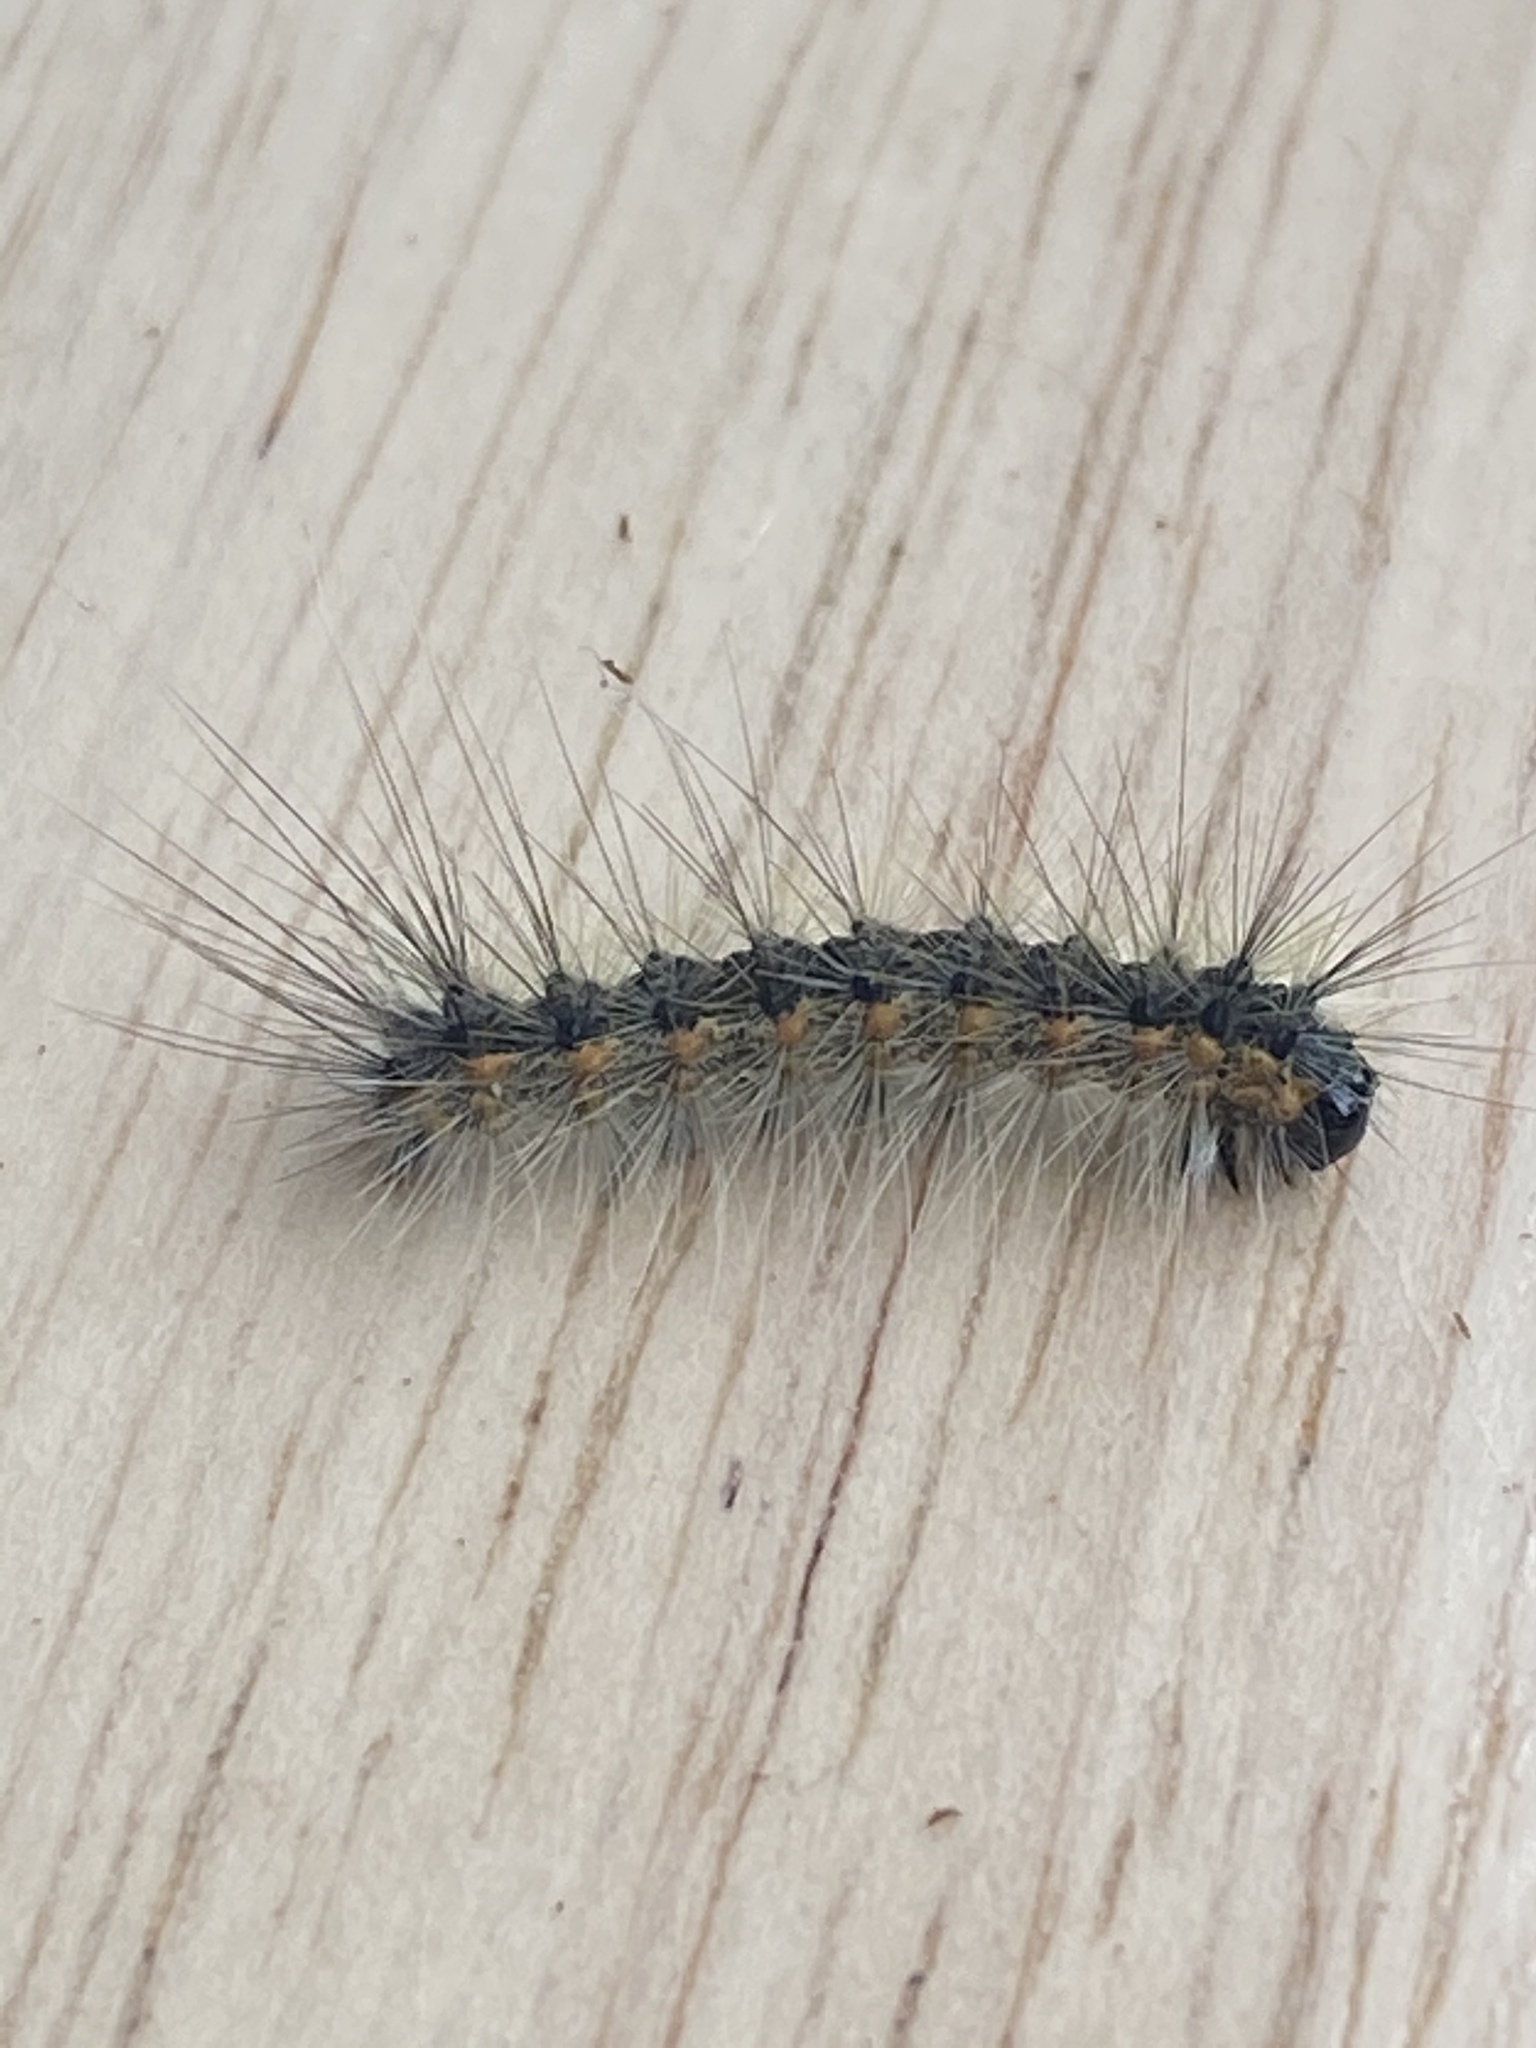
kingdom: Animalia
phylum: Arthropoda
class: Insecta
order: Lepidoptera
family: Erebidae
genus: Hyphantria
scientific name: Hyphantria cunea
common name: American white moth
